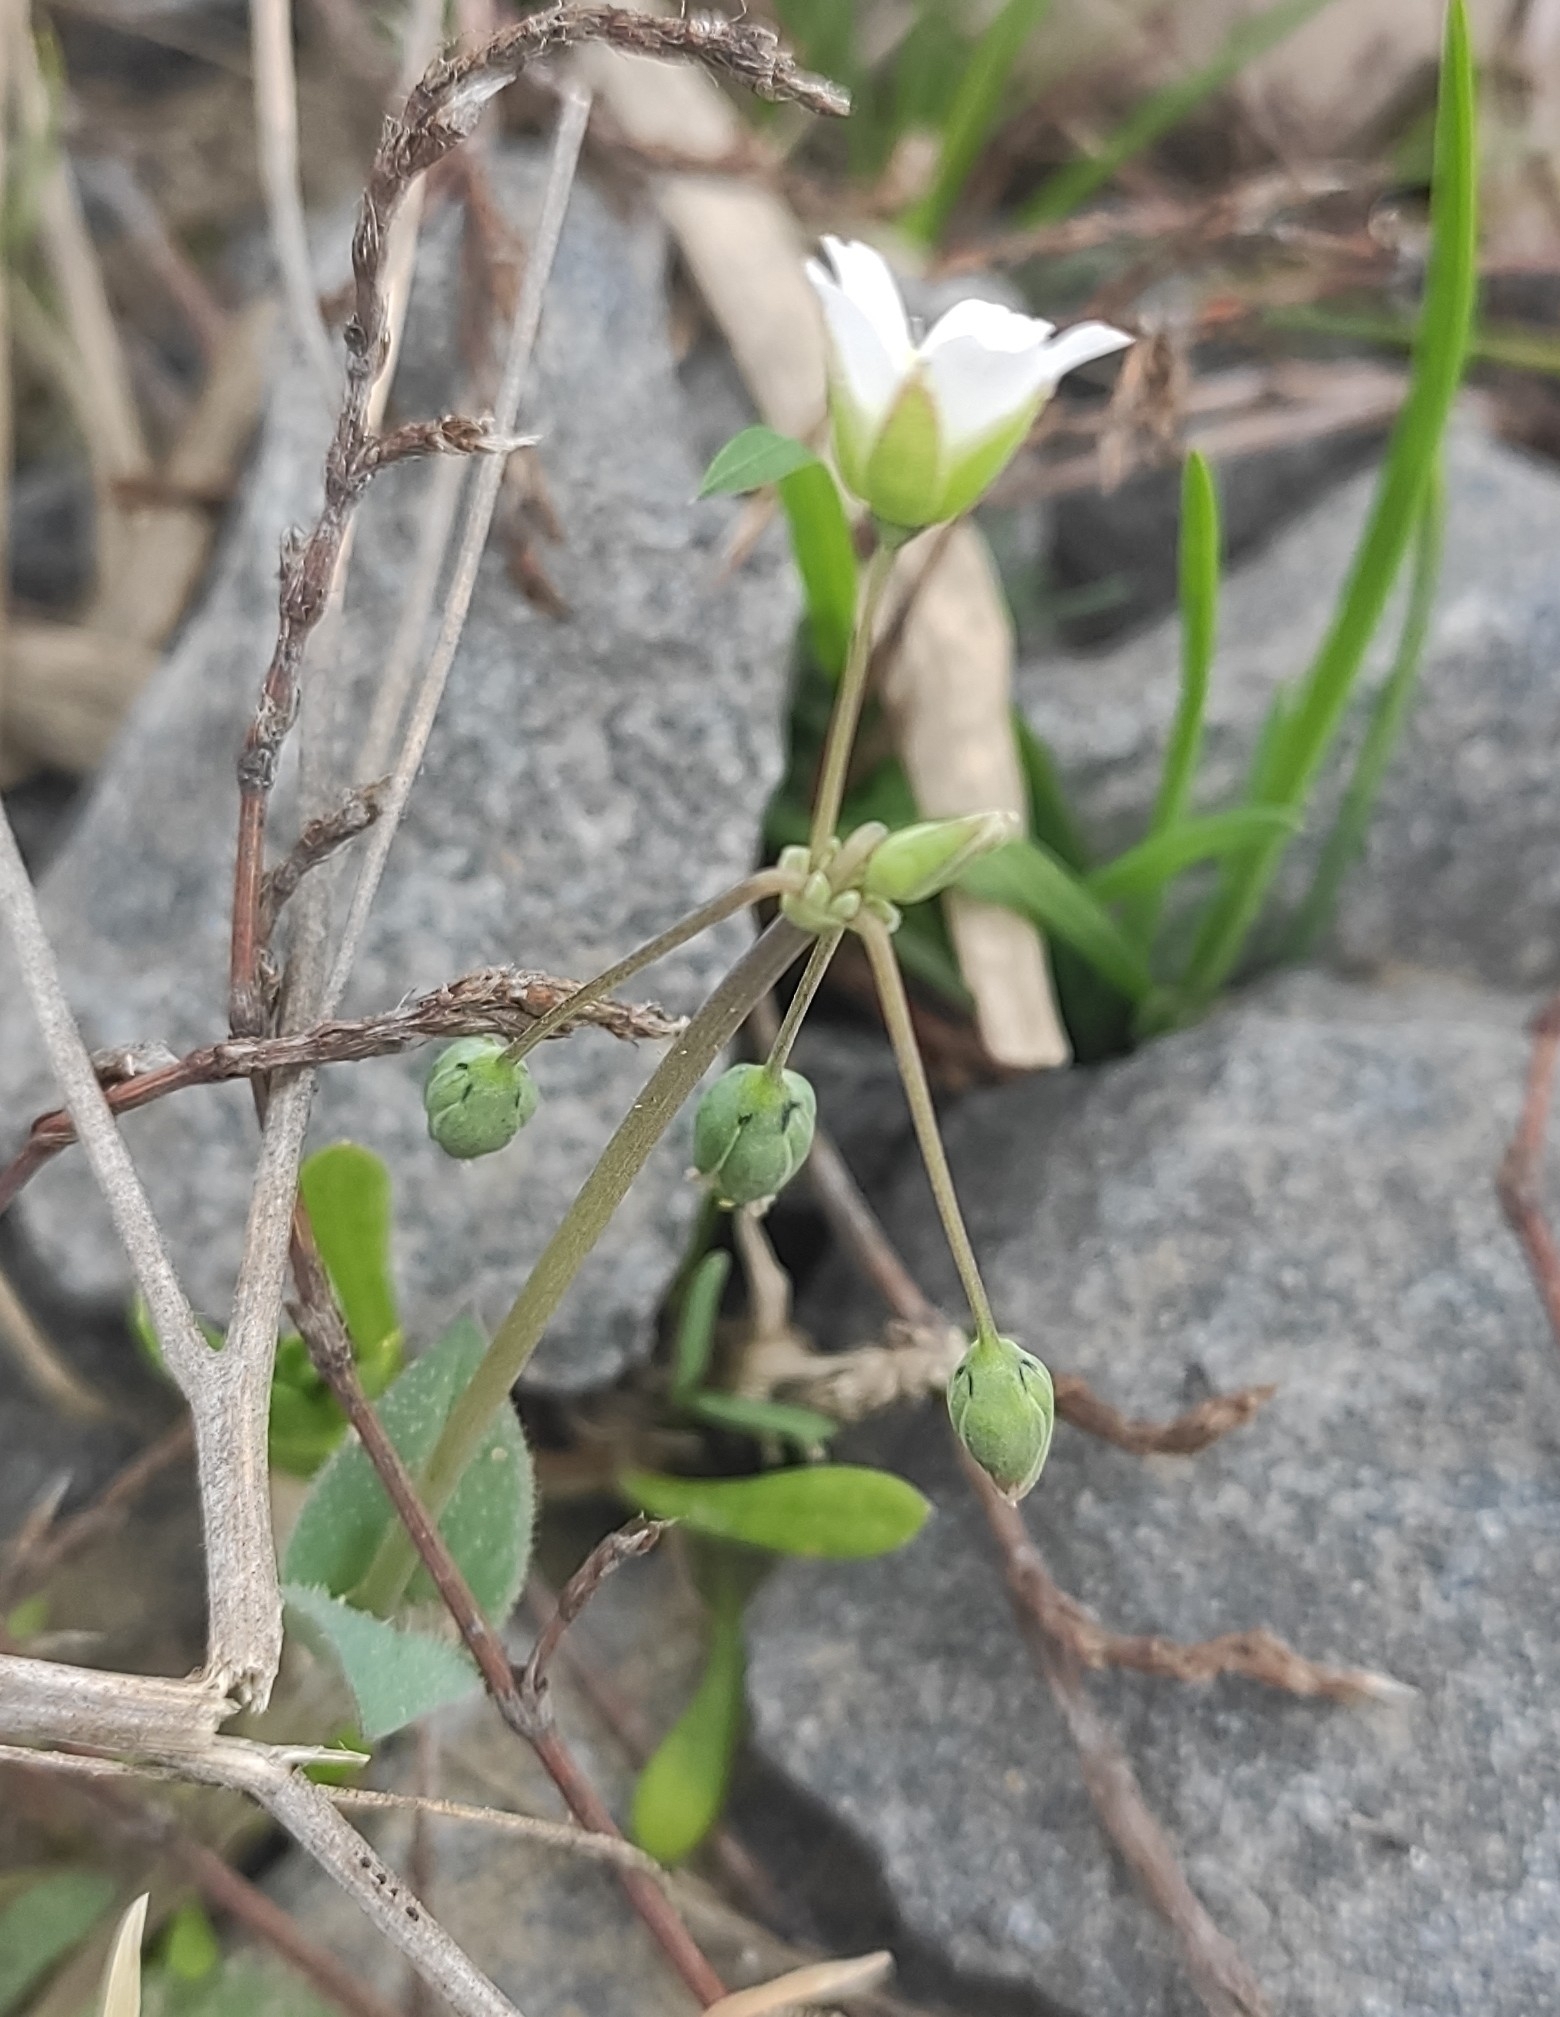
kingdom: Plantae
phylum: Tracheophyta
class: Magnoliopsida
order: Caryophyllales
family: Caryophyllaceae
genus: Holosteum
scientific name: Holosteum umbellatum
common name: Jagged chickweed
